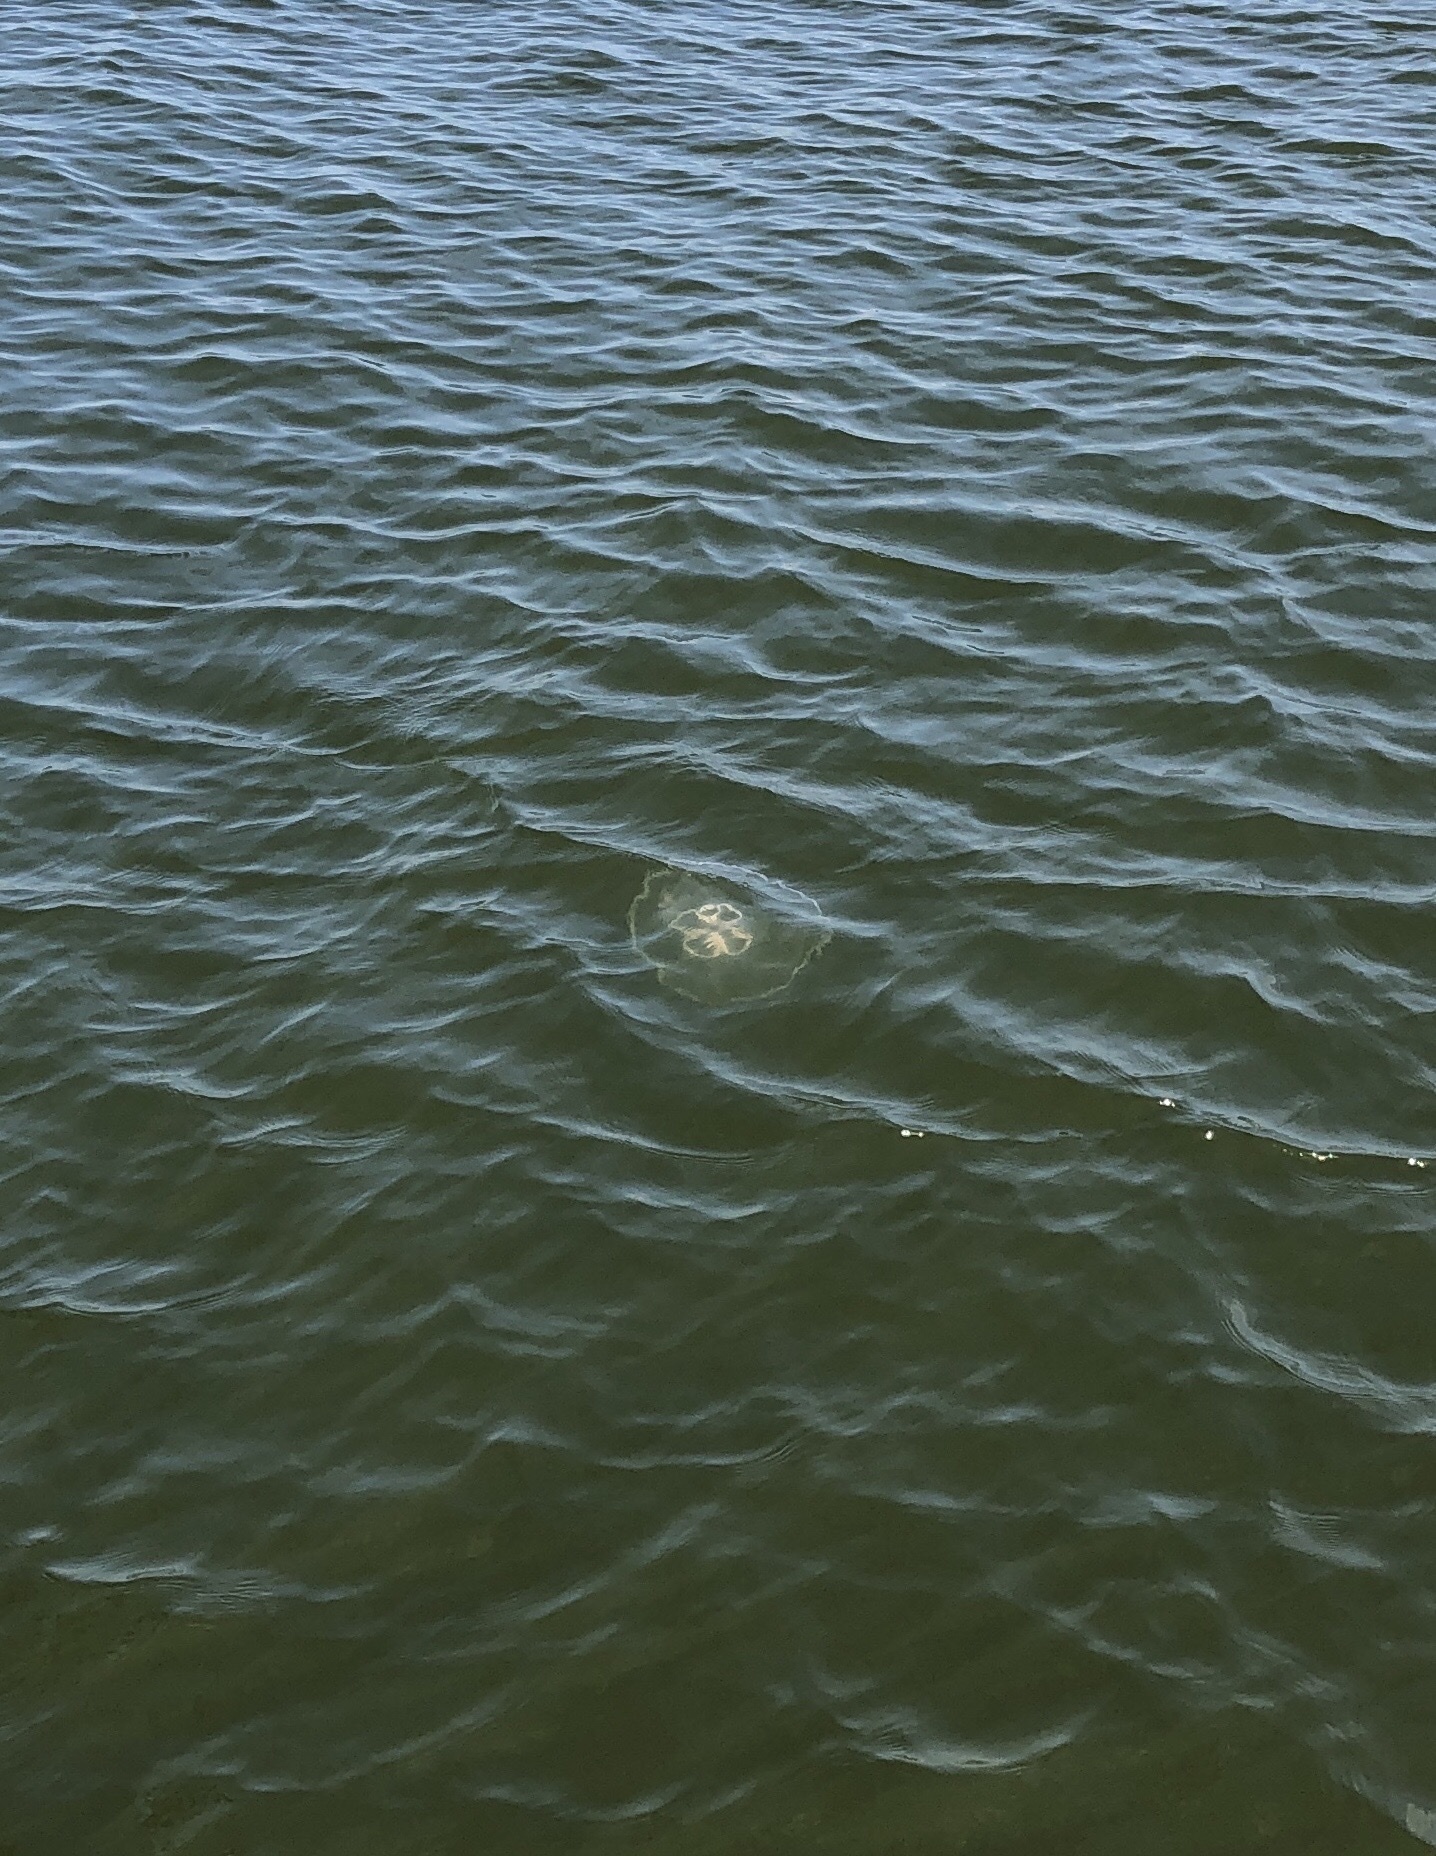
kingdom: Animalia
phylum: Cnidaria
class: Scyphozoa
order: Semaeostomeae
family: Ulmaridae
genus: Aurelia
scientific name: Aurelia marginalis
